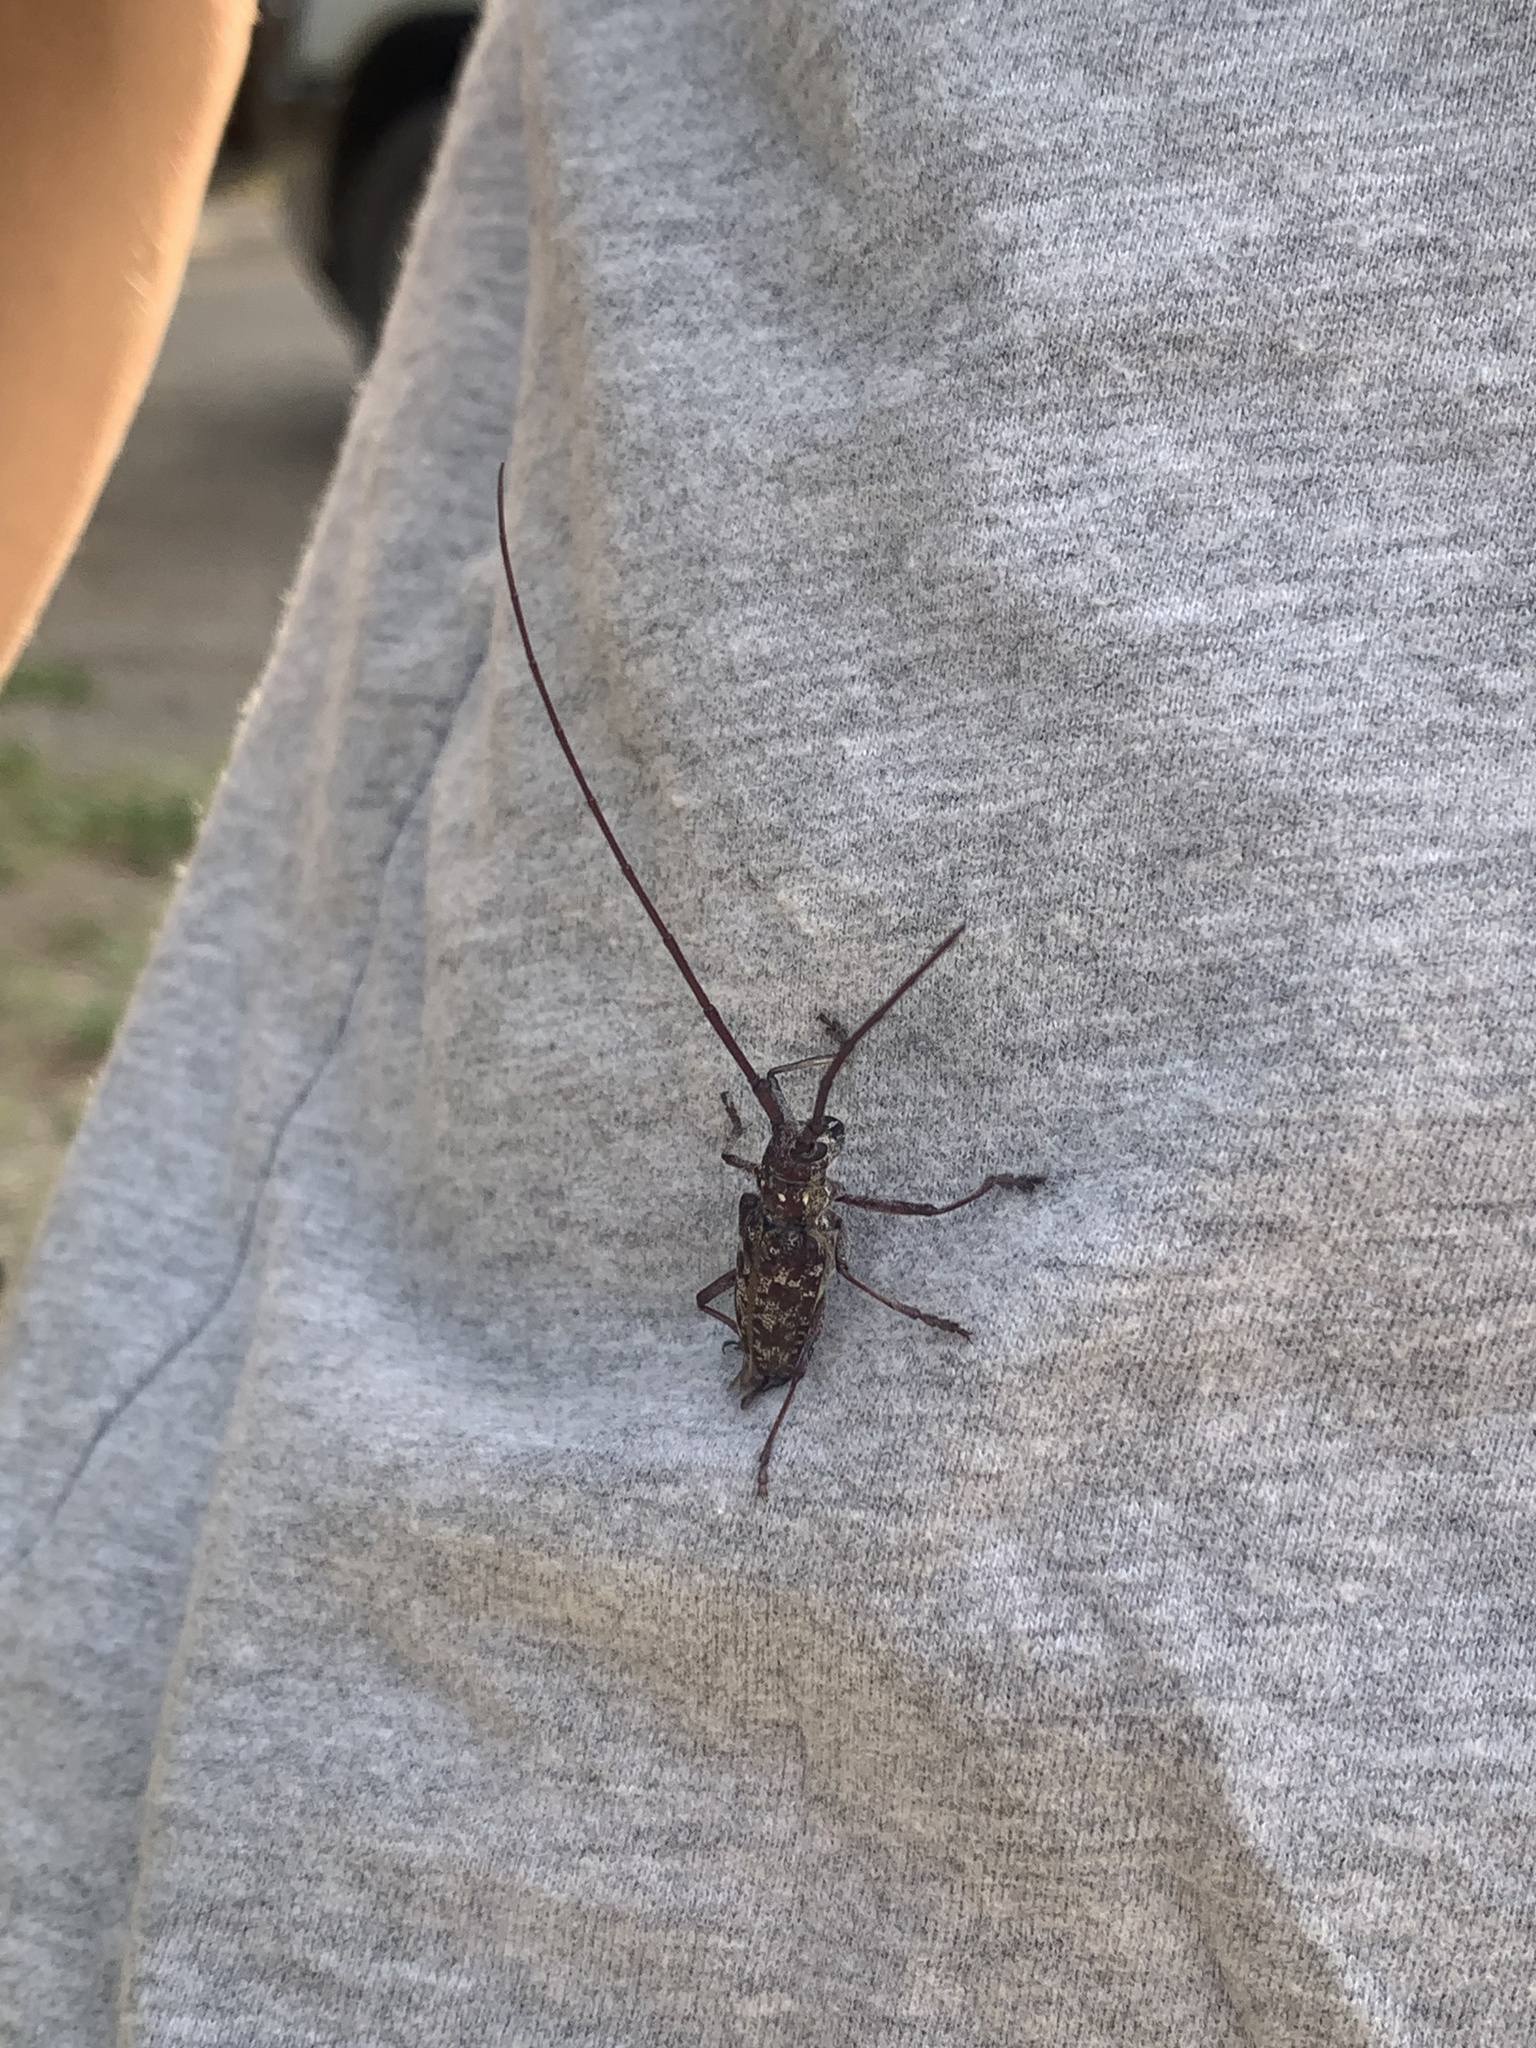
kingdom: Animalia
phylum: Arthropoda
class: Insecta
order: Coleoptera
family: Cerambycidae
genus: Monochamus
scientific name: Monochamus obtusus
